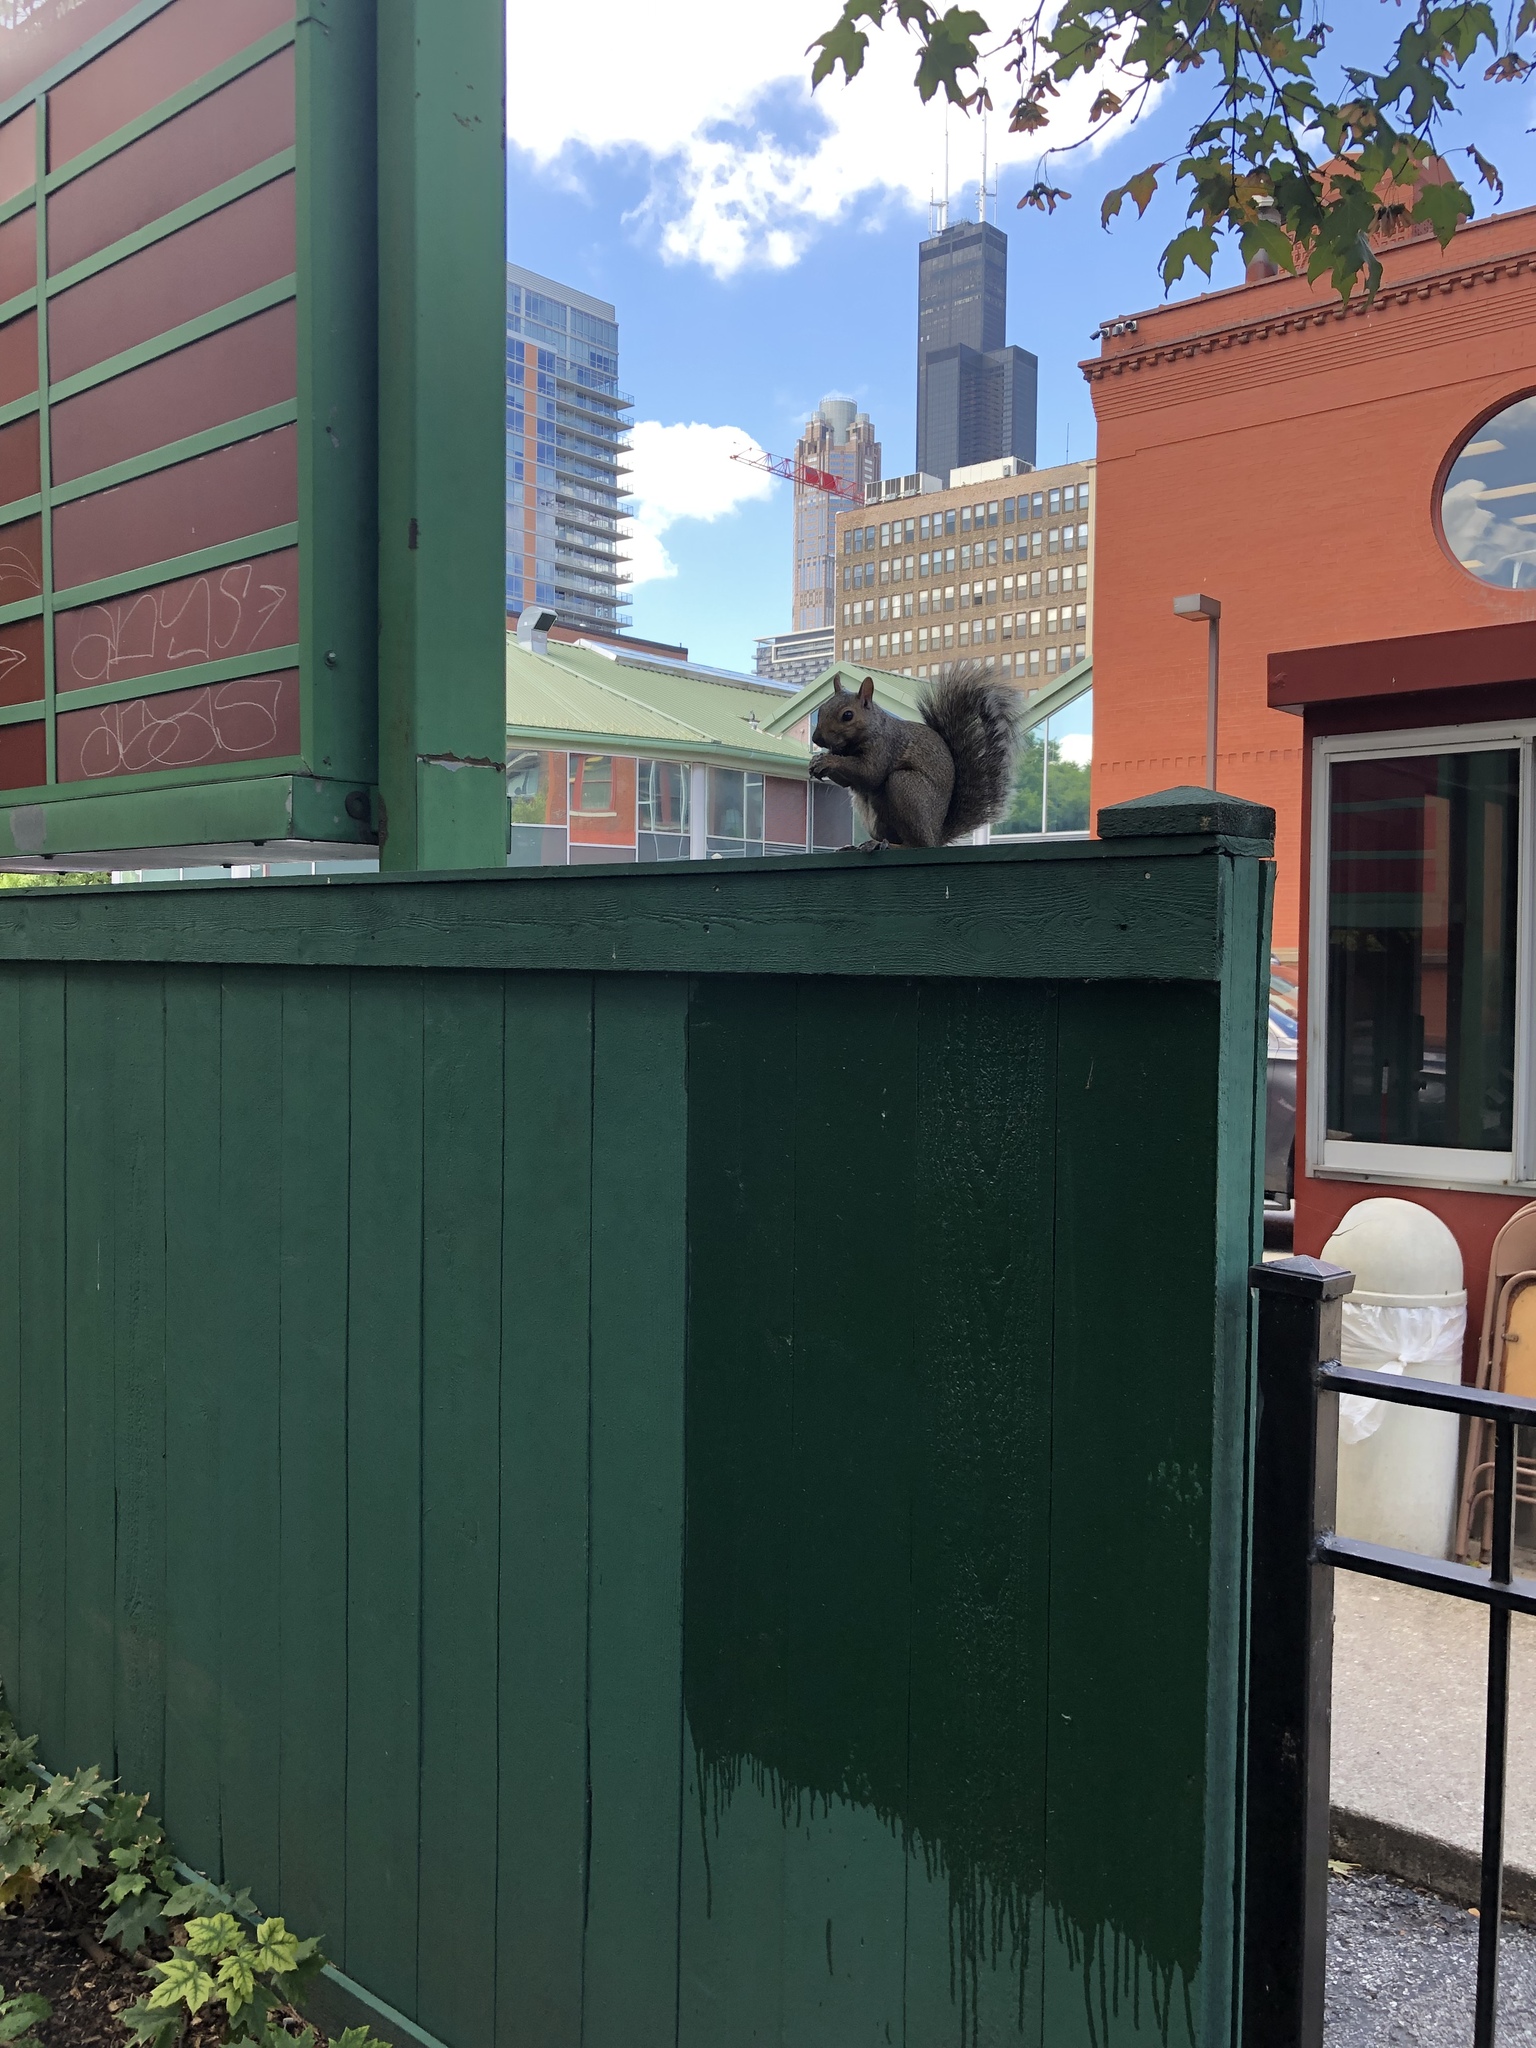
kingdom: Animalia
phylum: Chordata
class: Mammalia
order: Rodentia
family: Sciuridae
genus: Sciurus
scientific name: Sciurus carolinensis
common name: Eastern gray squirrel
